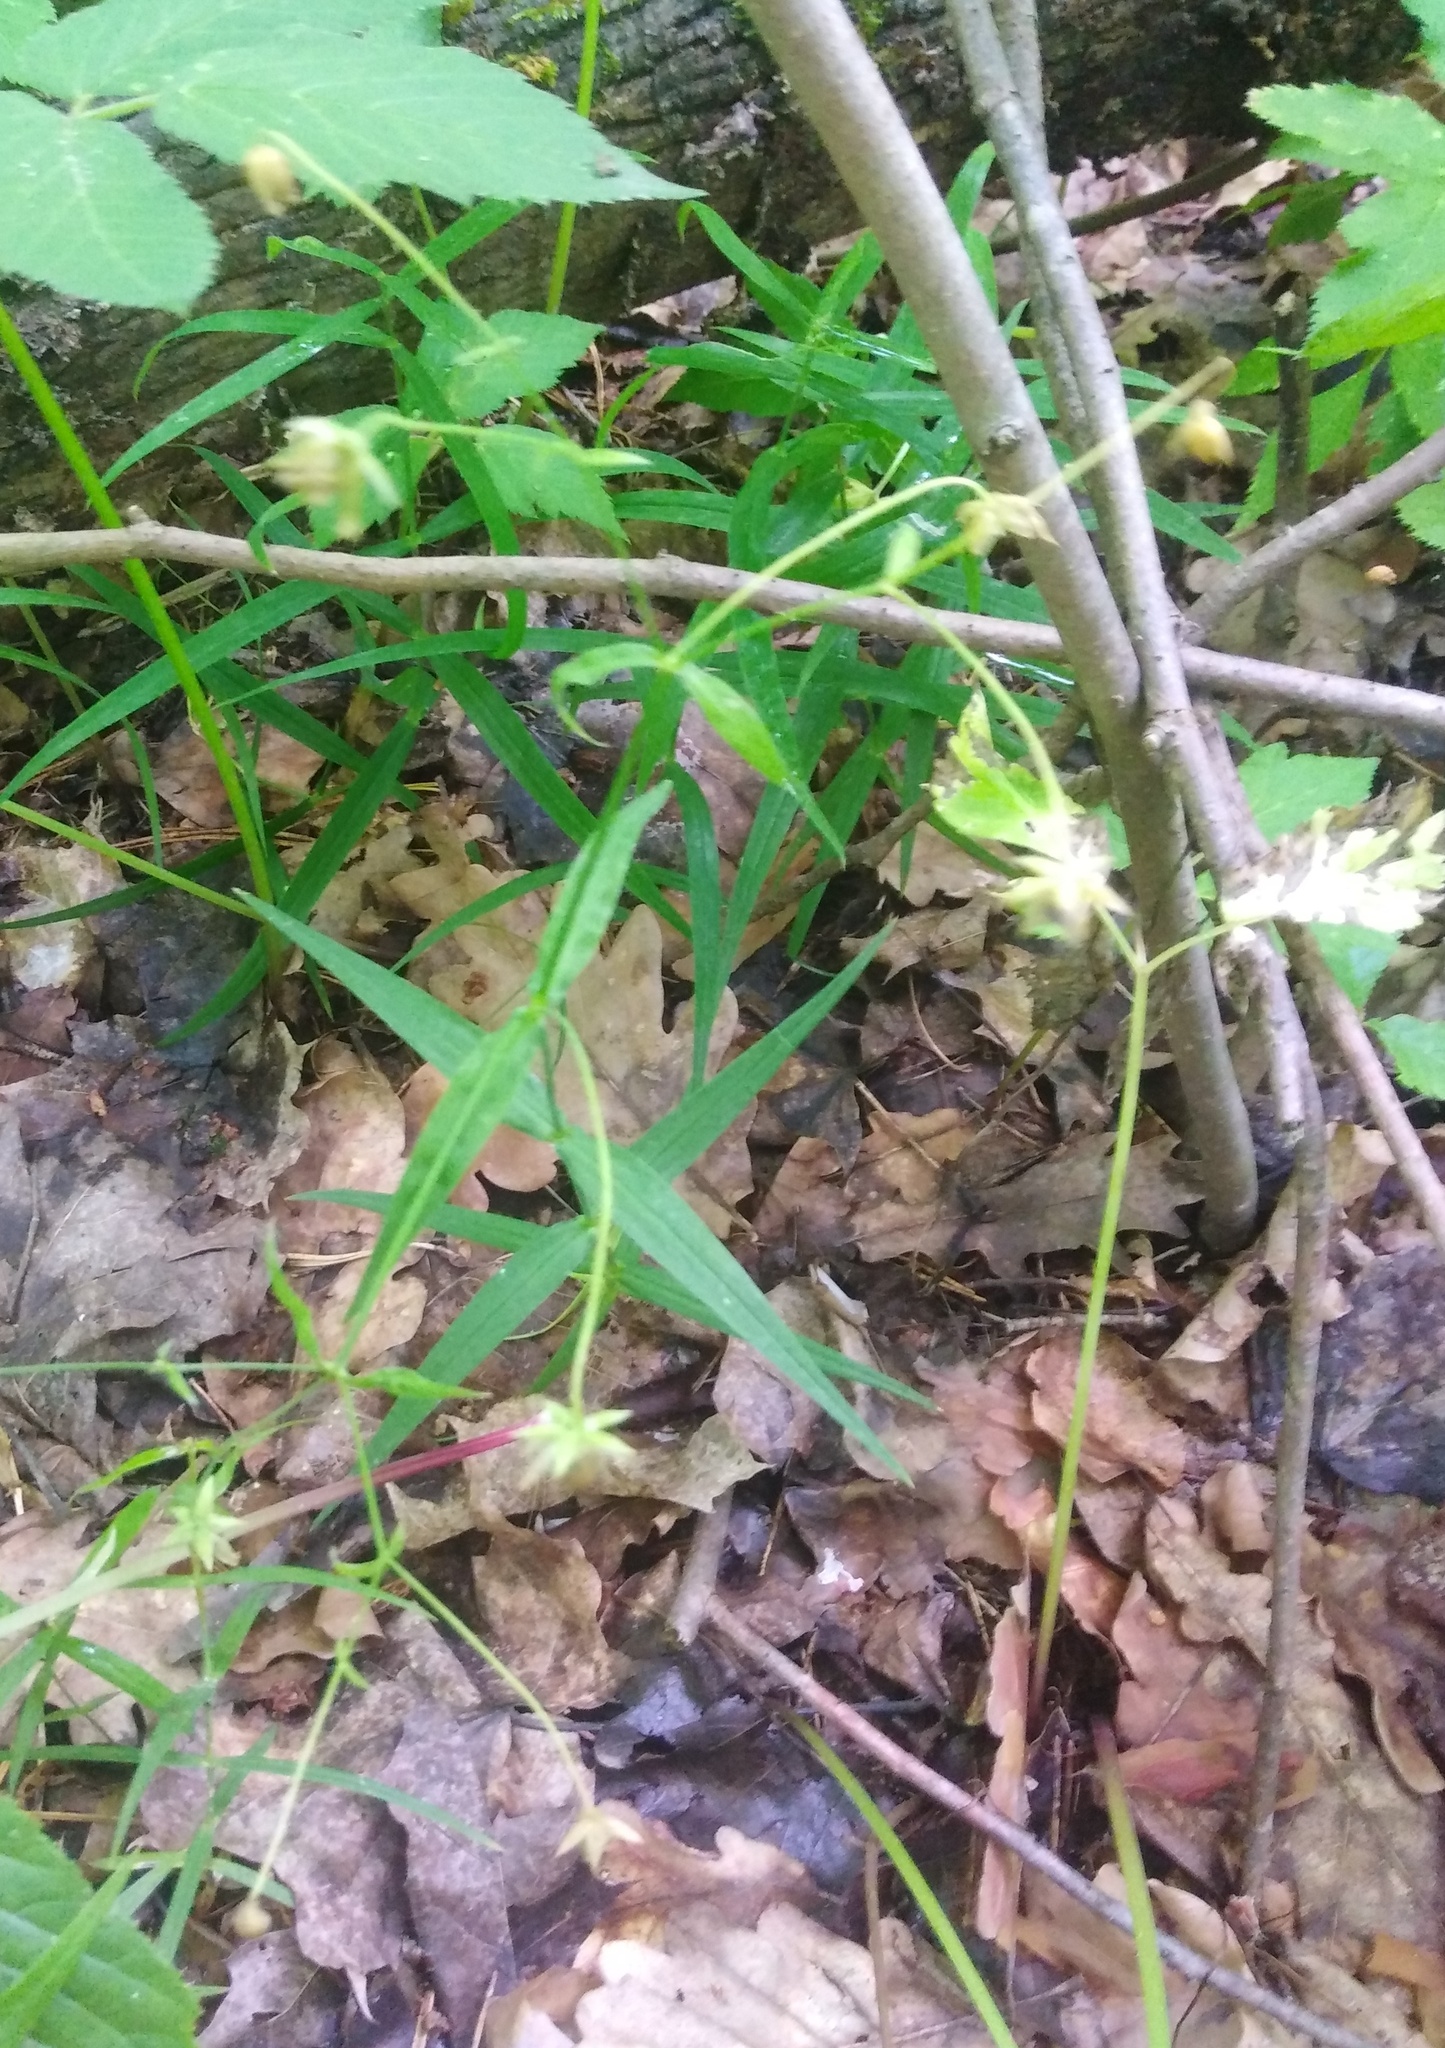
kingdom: Plantae
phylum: Tracheophyta
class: Magnoliopsida
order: Caryophyllales
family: Caryophyllaceae
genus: Rabelera
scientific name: Rabelera holostea
